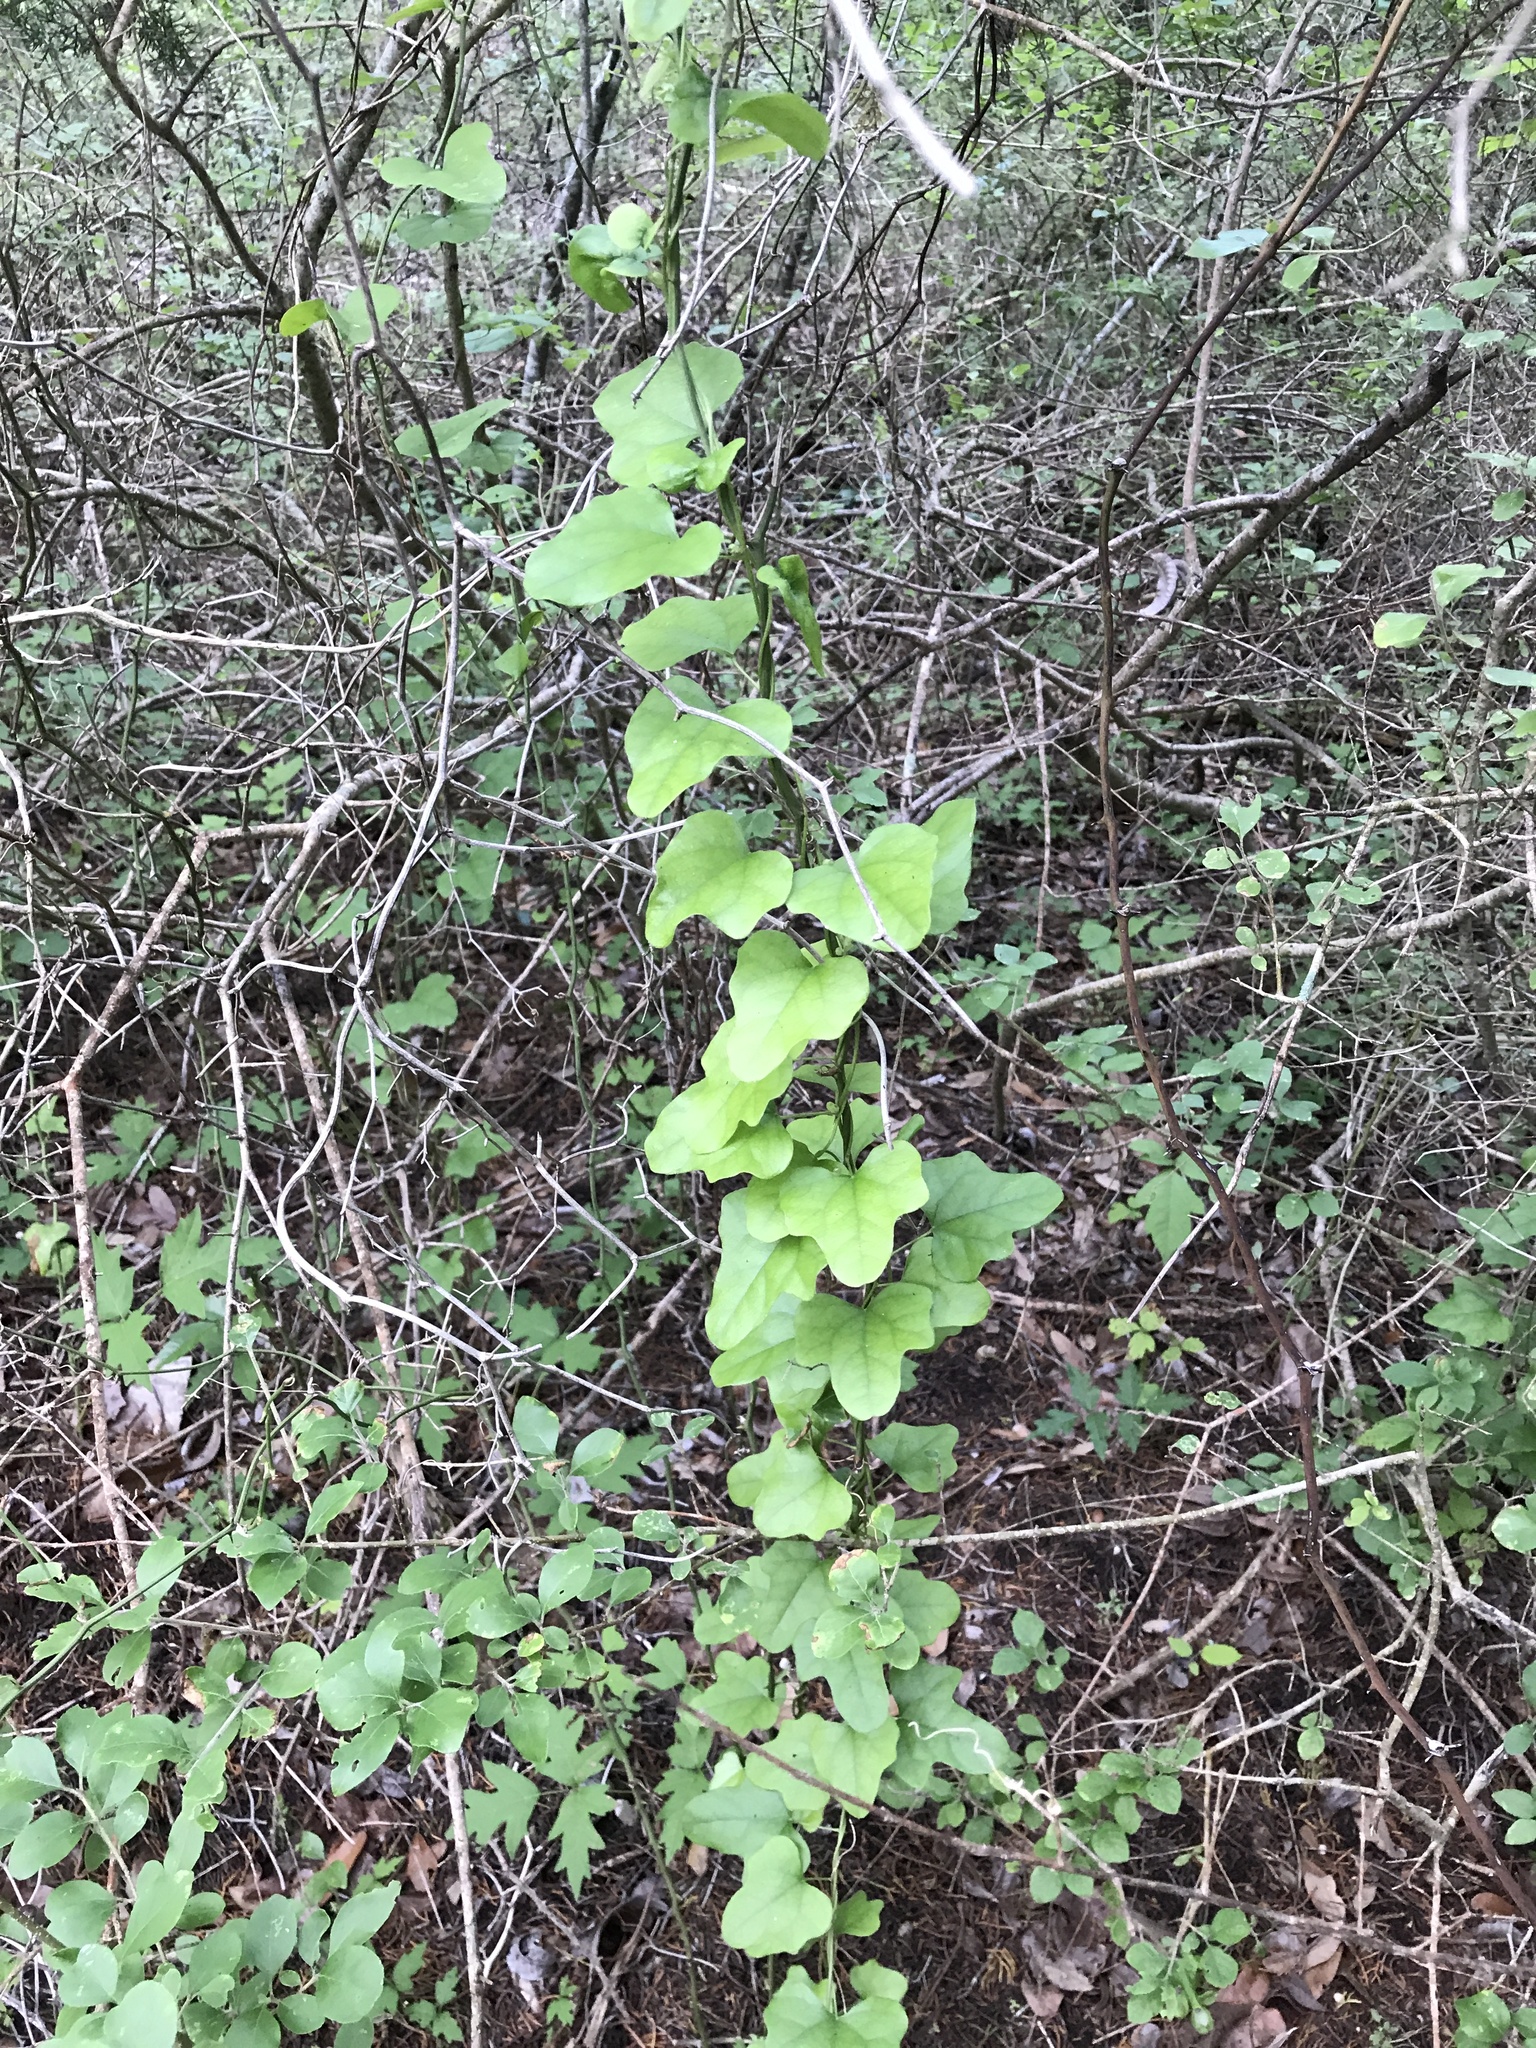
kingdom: Plantae
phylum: Tracheophyta
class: Magnoliopsida
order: Ranunculales
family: Menispermaceae
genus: Cocculus
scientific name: Cocculus carolinus
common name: Carolina moonseed
